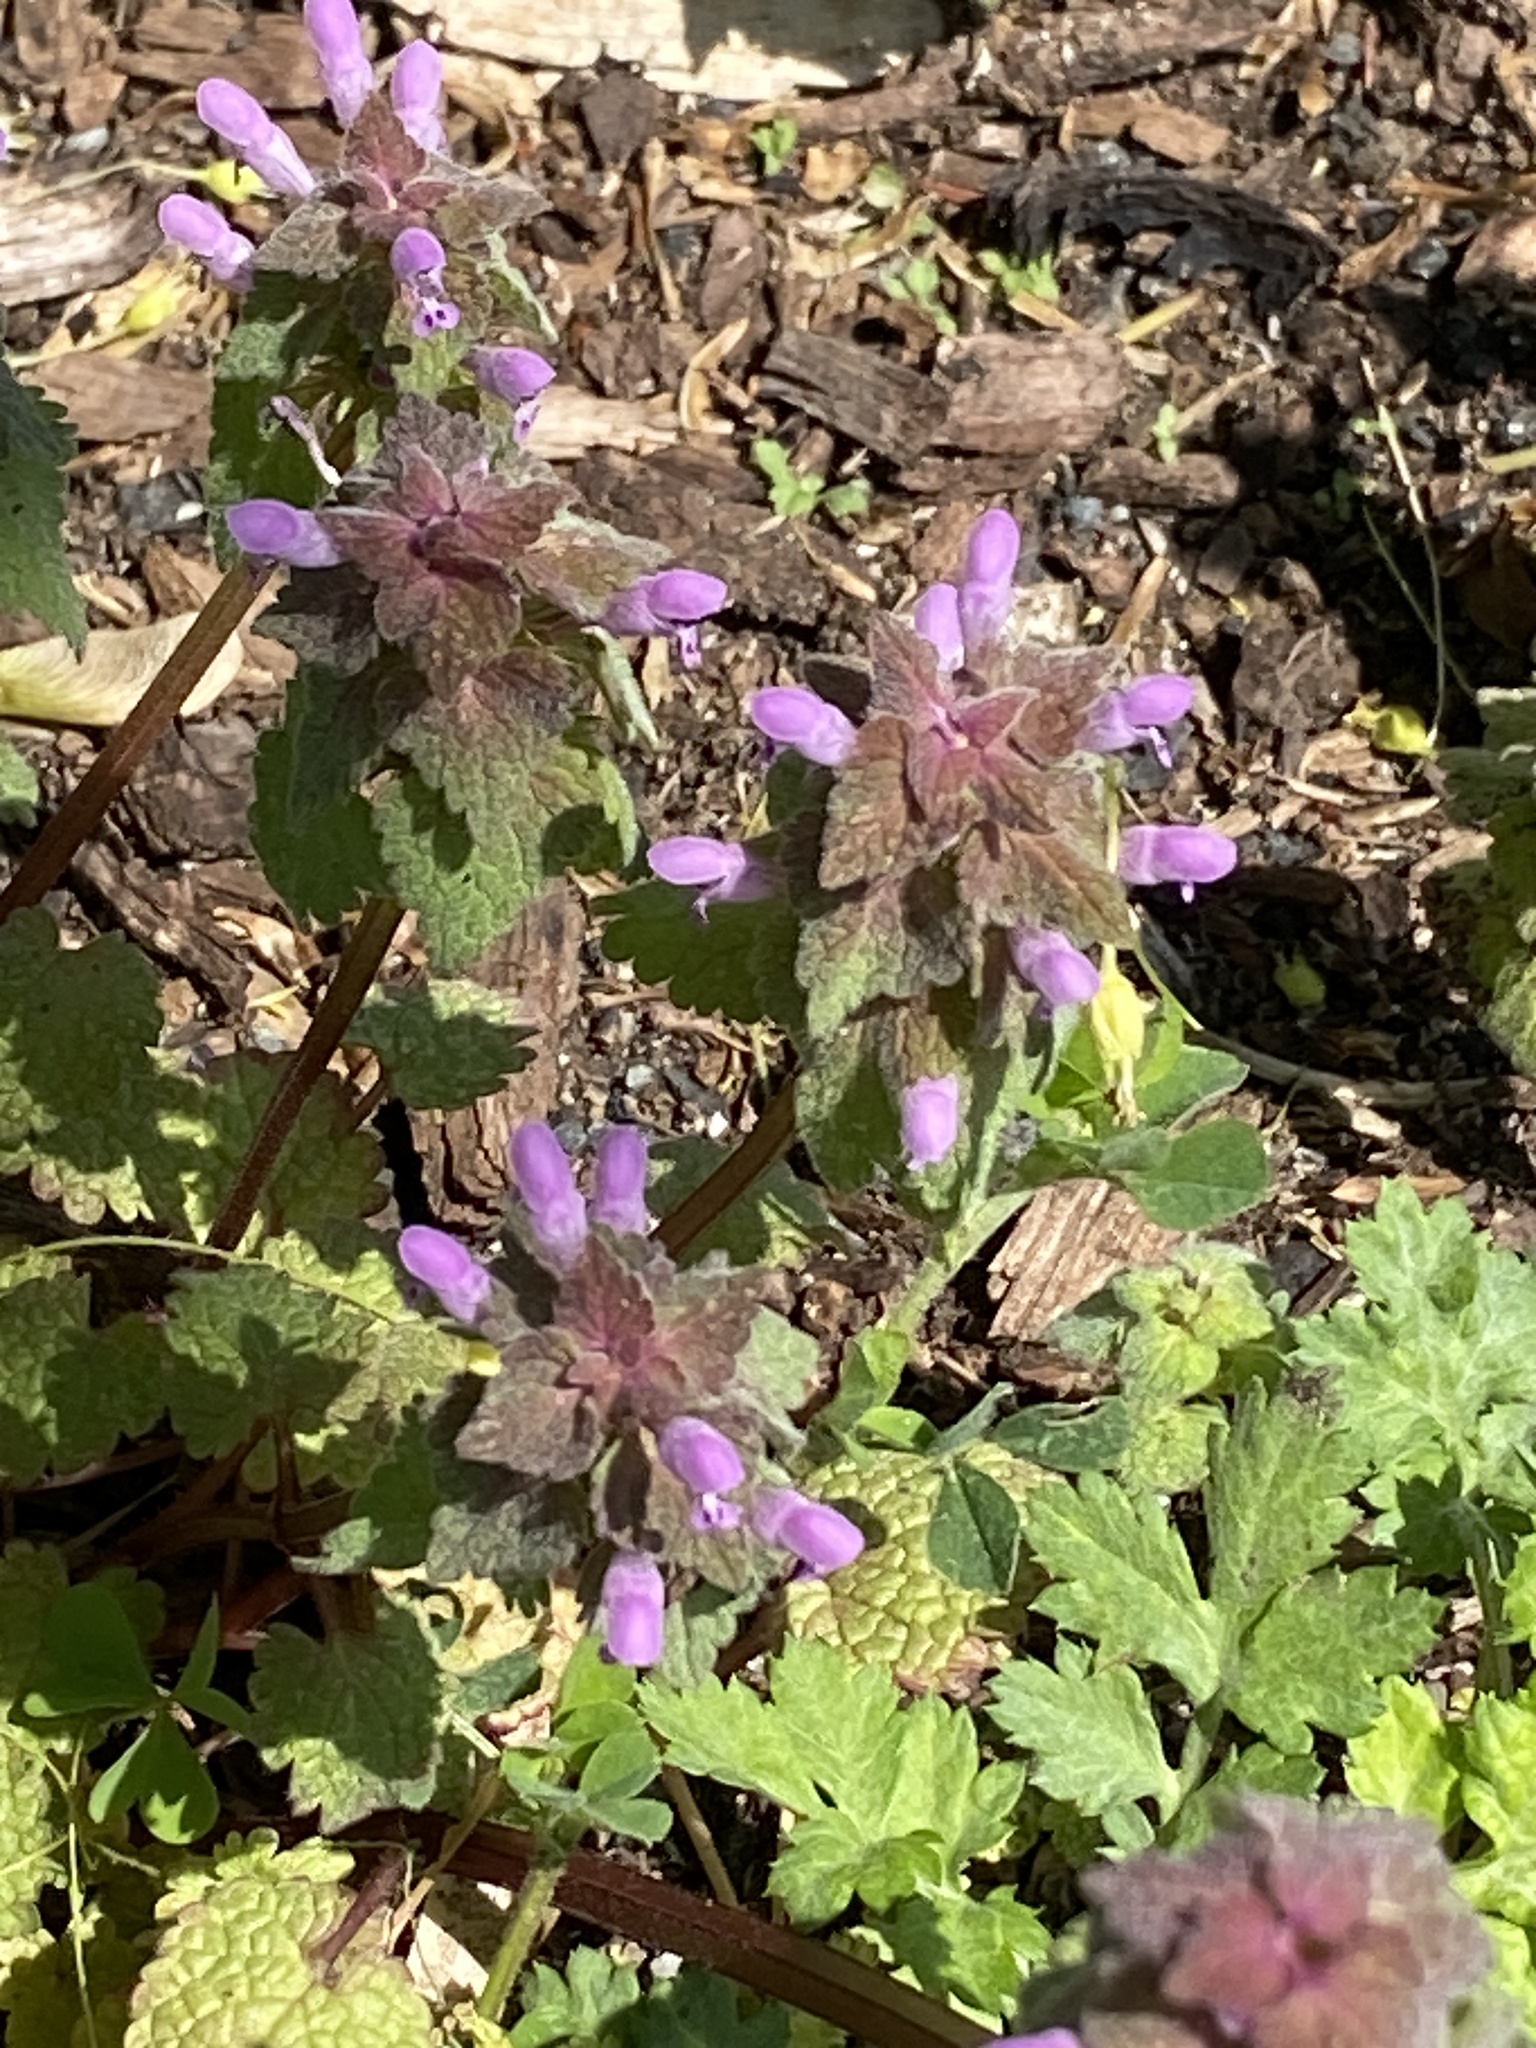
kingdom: Plantae
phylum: Tracheophyta
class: Magnoliopsida
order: Lamiales
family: Lamiaceae
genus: Lamium
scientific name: Lamium purpureum
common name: Red dead-nettle
